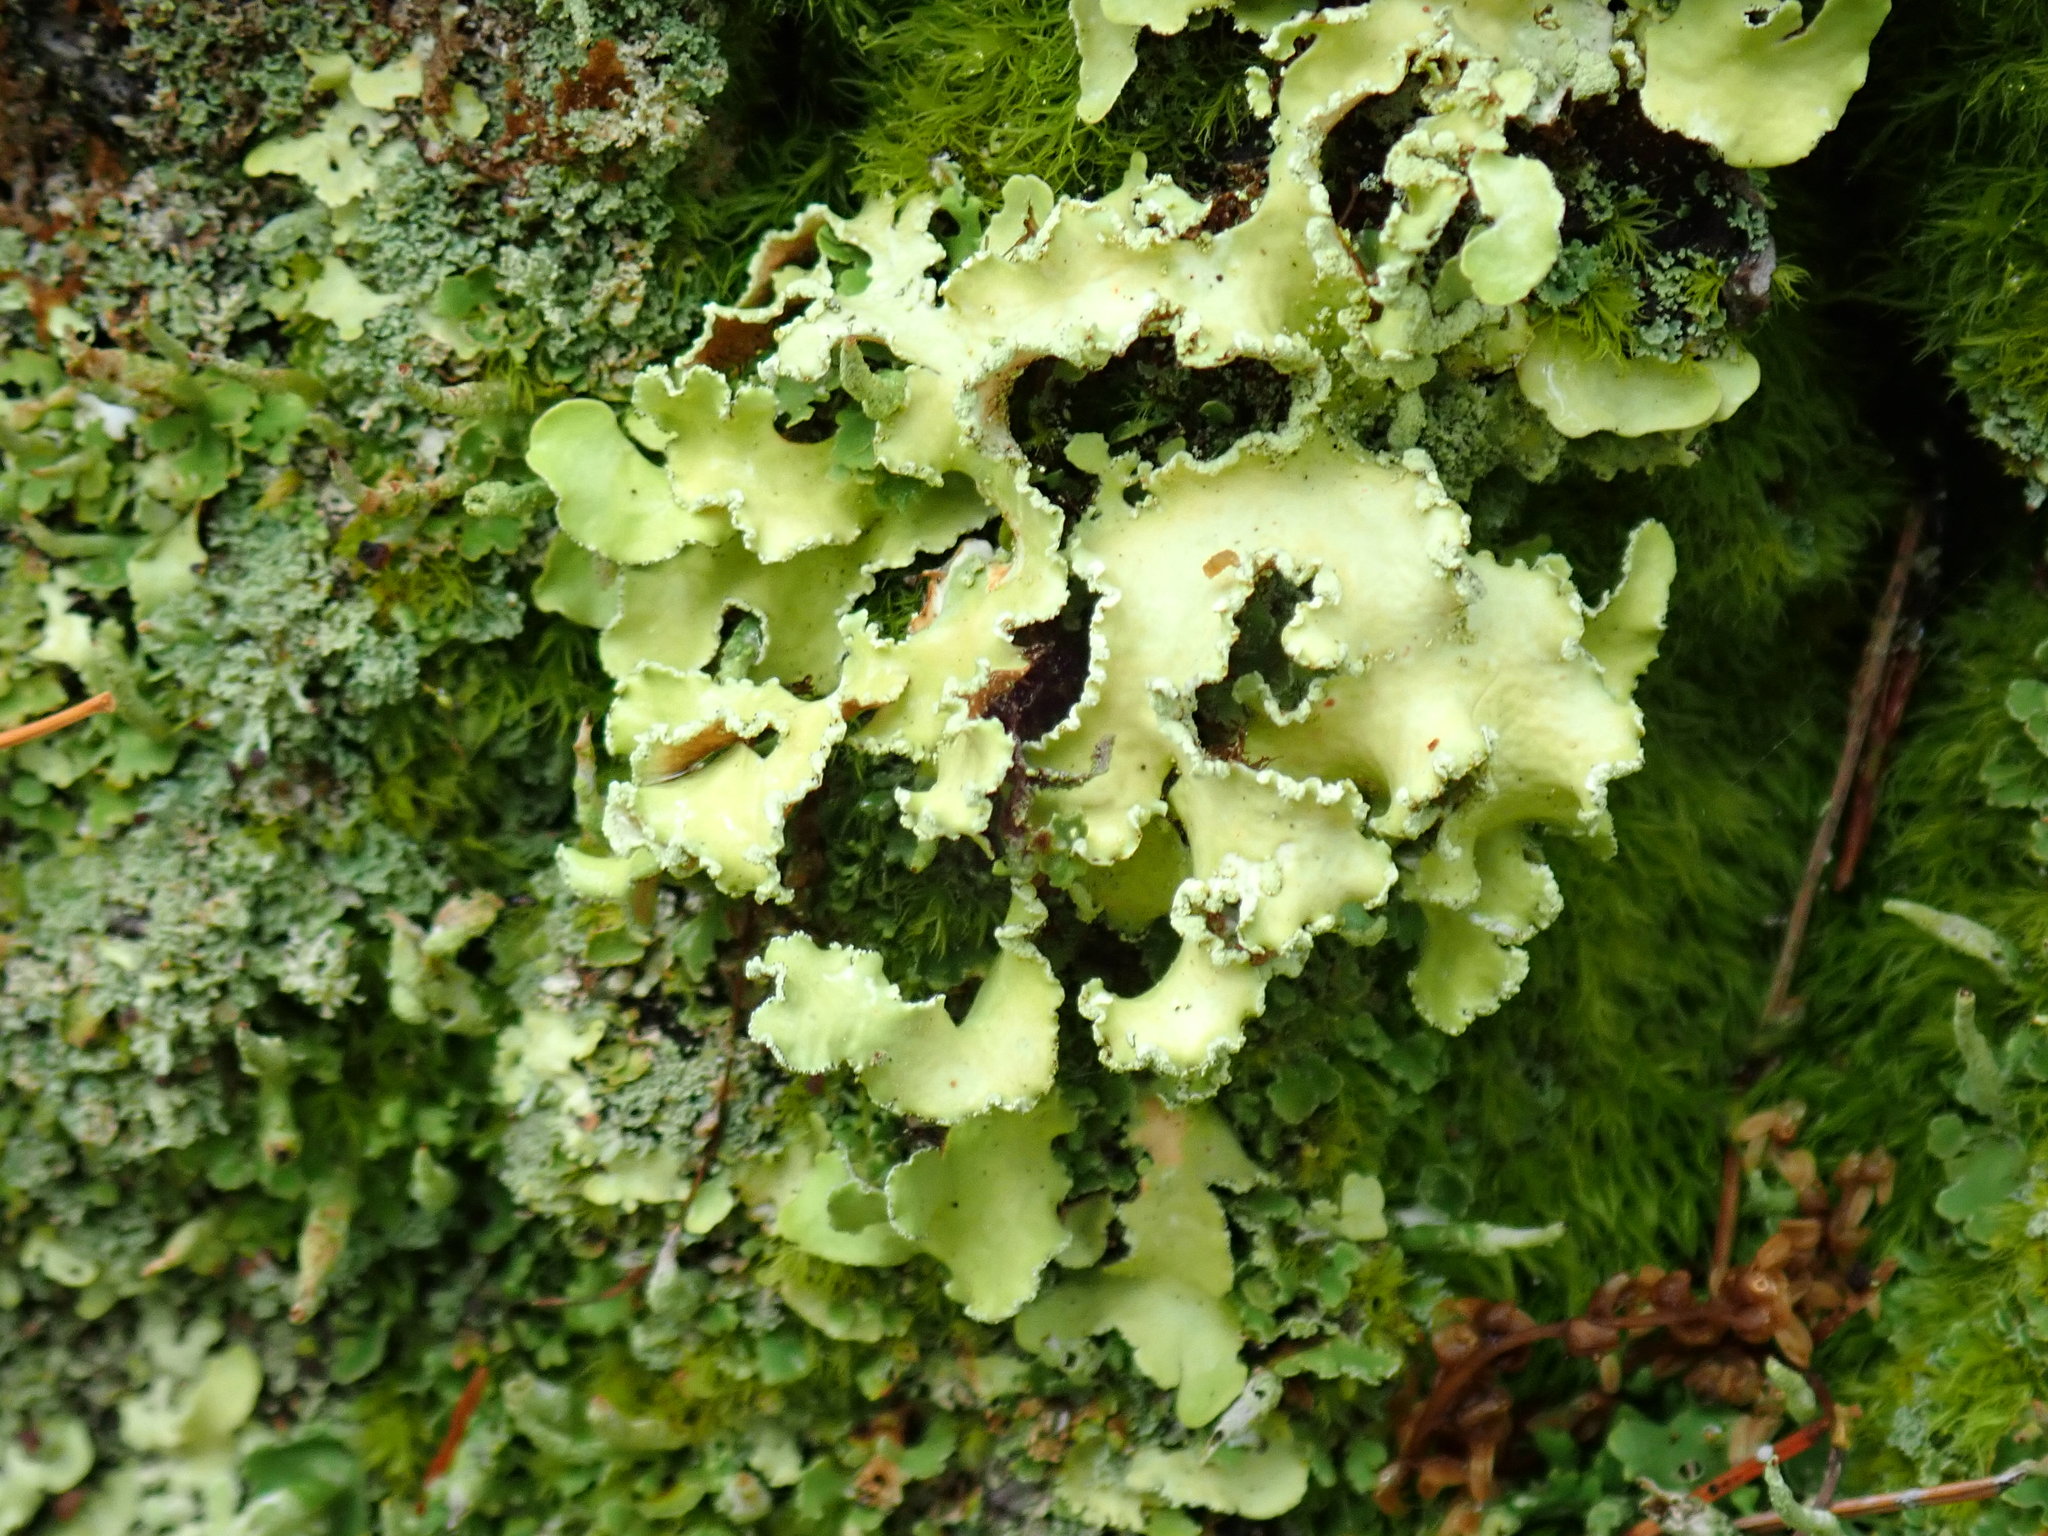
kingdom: Fungi
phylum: Ascomycota
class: Lecanoromycetes
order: Lecanorales
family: Parmeliaceae
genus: Usnocetraria
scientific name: Usnocetraria oakesiana
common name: Yellow ribbon lichen
